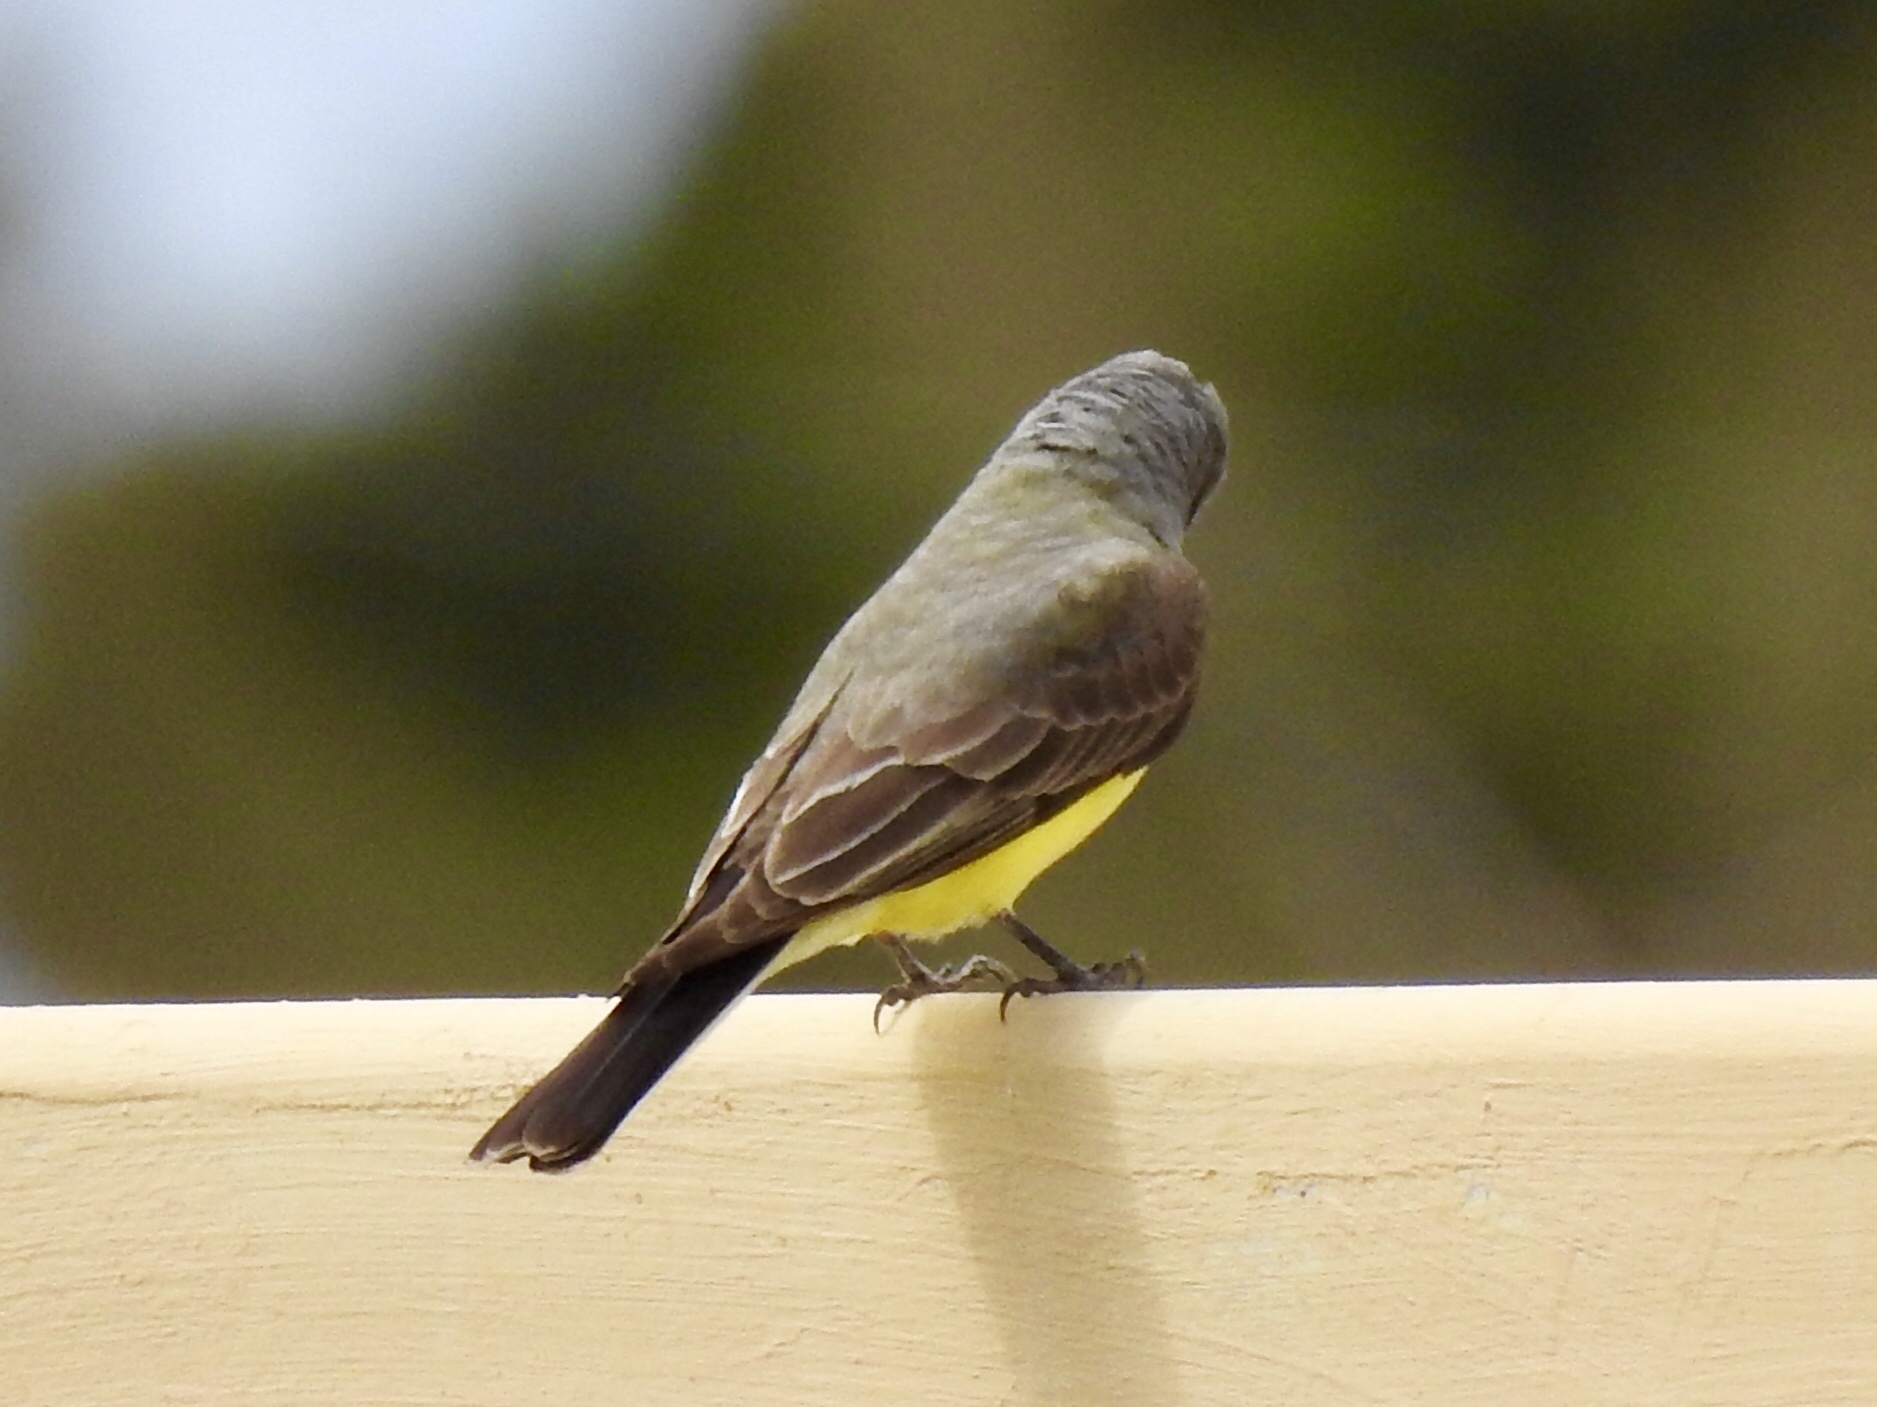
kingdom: Animalia
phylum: Chordata
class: Aves
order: Passeriformes
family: Tyrannidae
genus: Tyrannus
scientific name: Tyrannus verticalis
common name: Western kingbird
